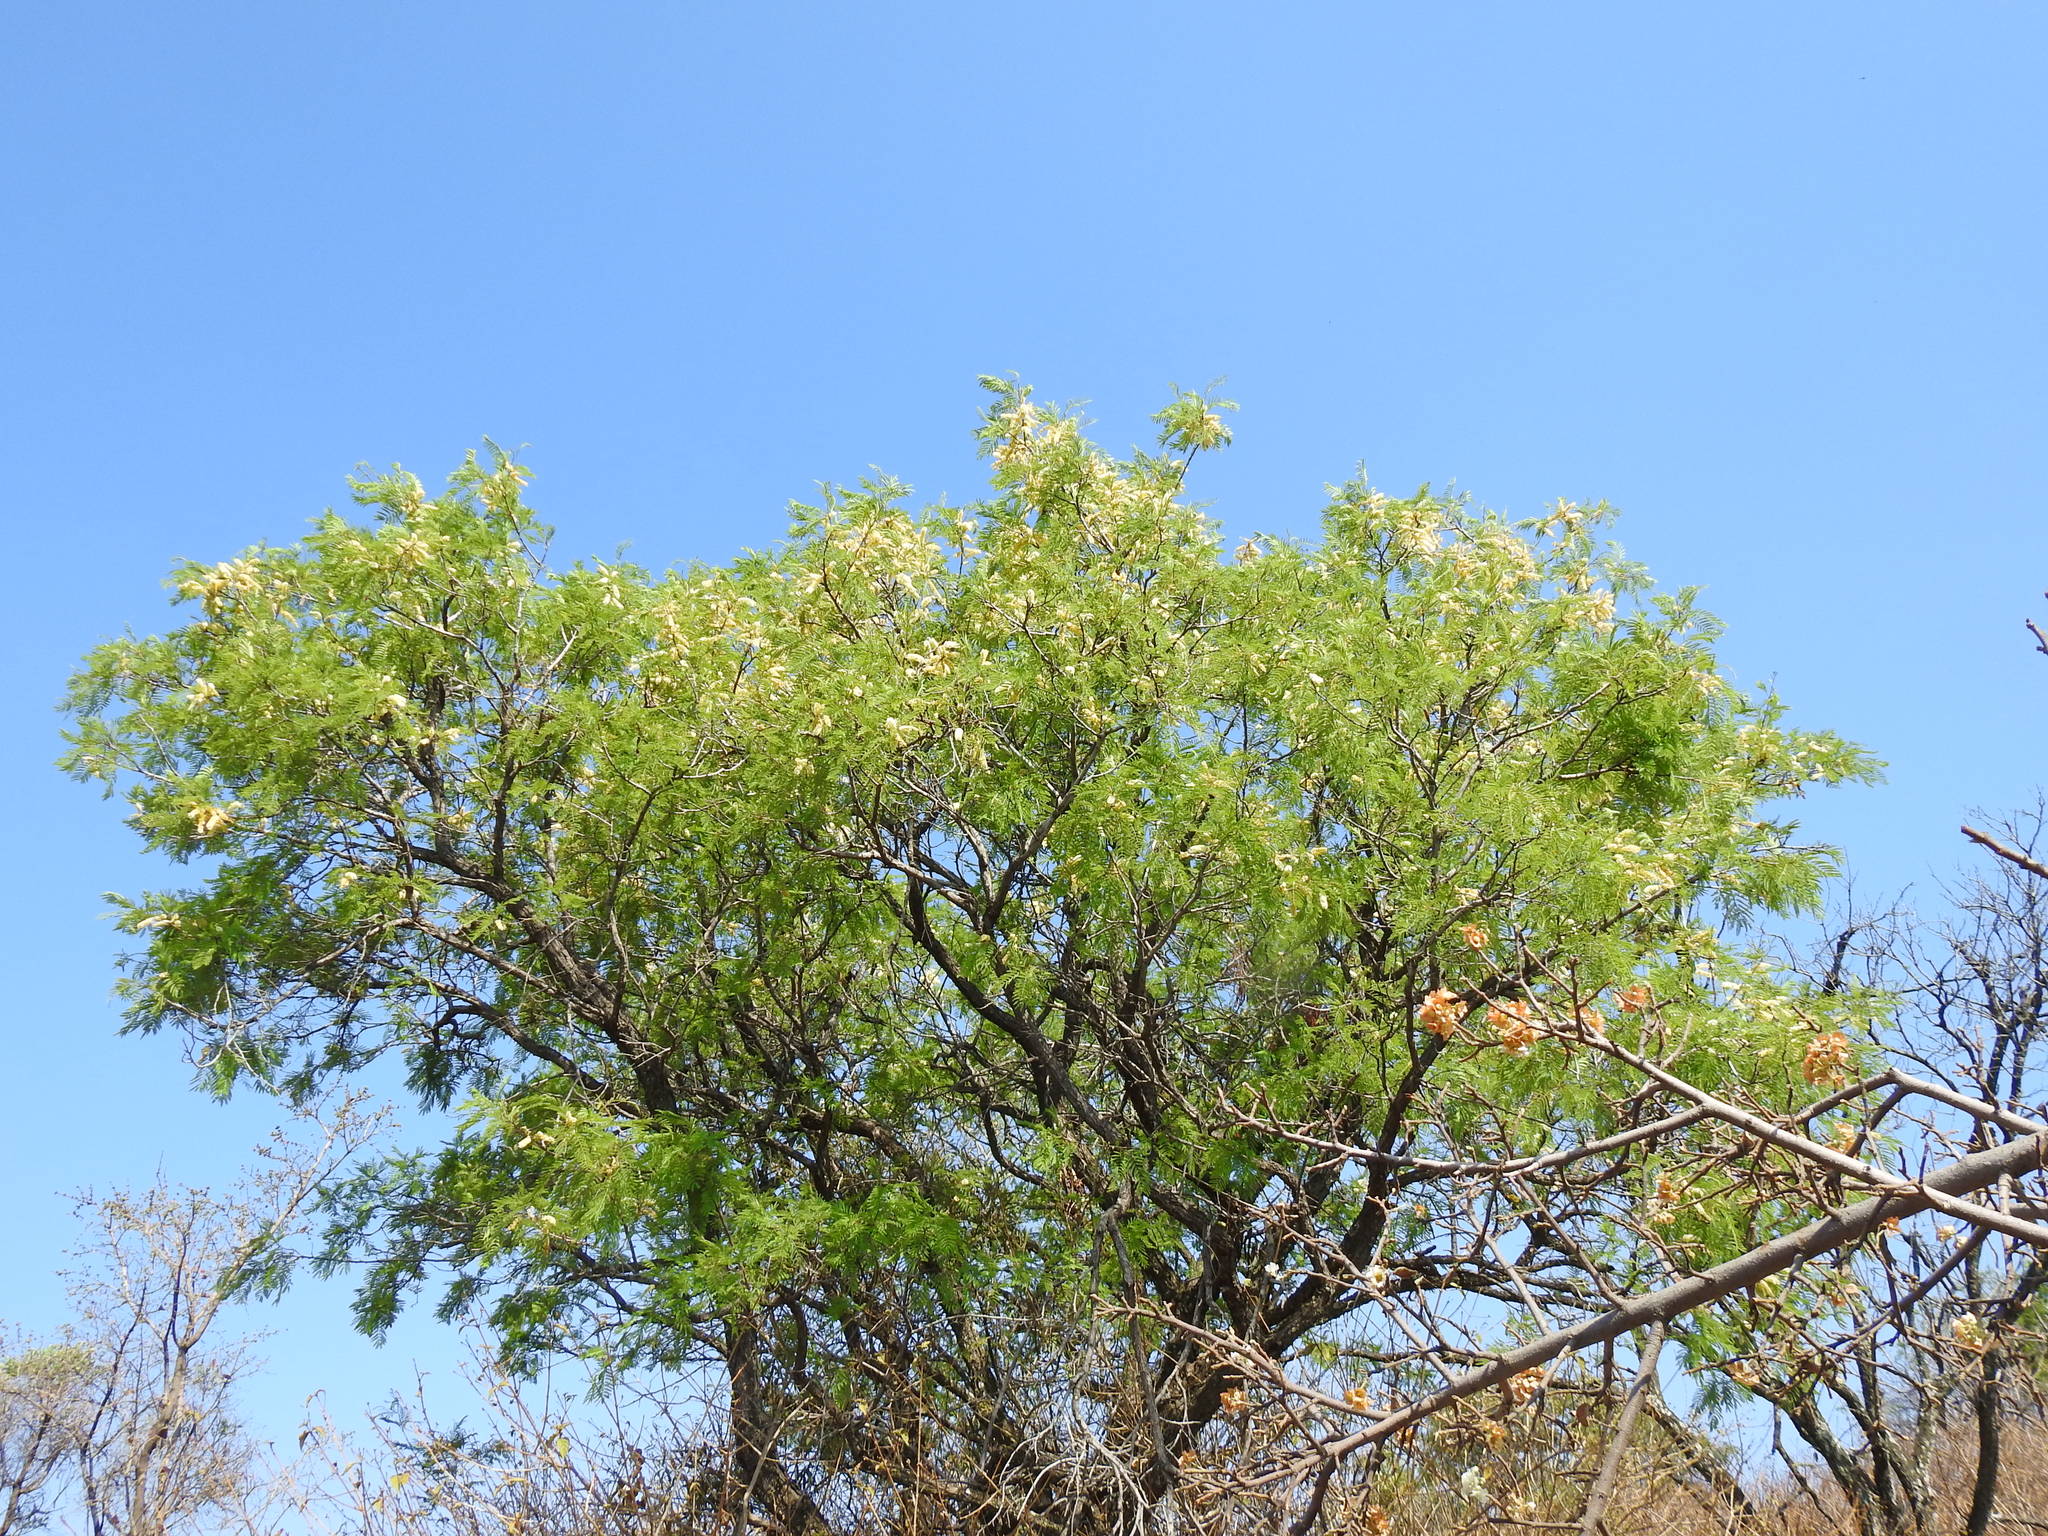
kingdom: Plantae
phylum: Tracheophyta
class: Magnoliopsida
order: Fabales
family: Fabaceae
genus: Senegalia
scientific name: Senegalia caffra
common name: Cat thorn
